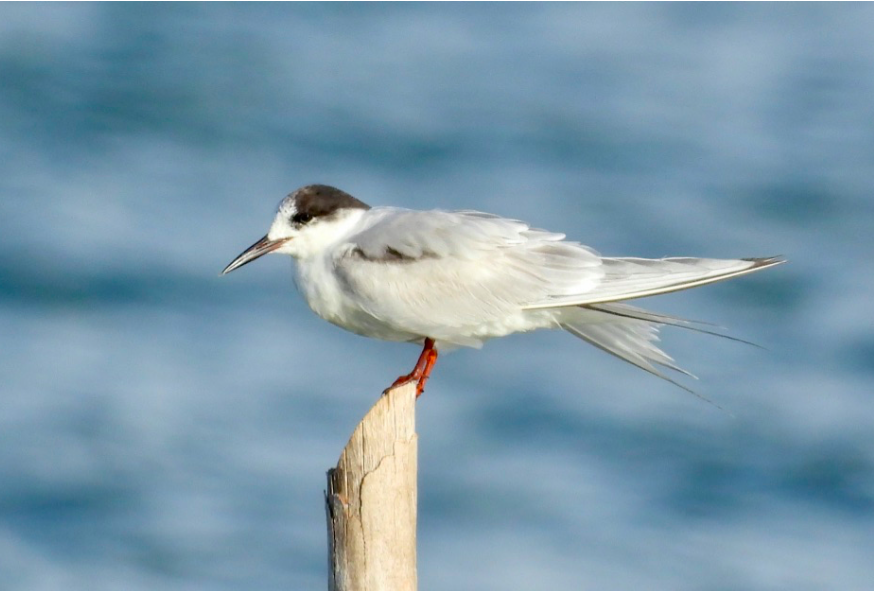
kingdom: Animalia
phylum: Chordata
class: Aves
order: Charadriiformes
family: Laridae
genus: Sterna
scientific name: Sterna hirundo
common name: Common tern
